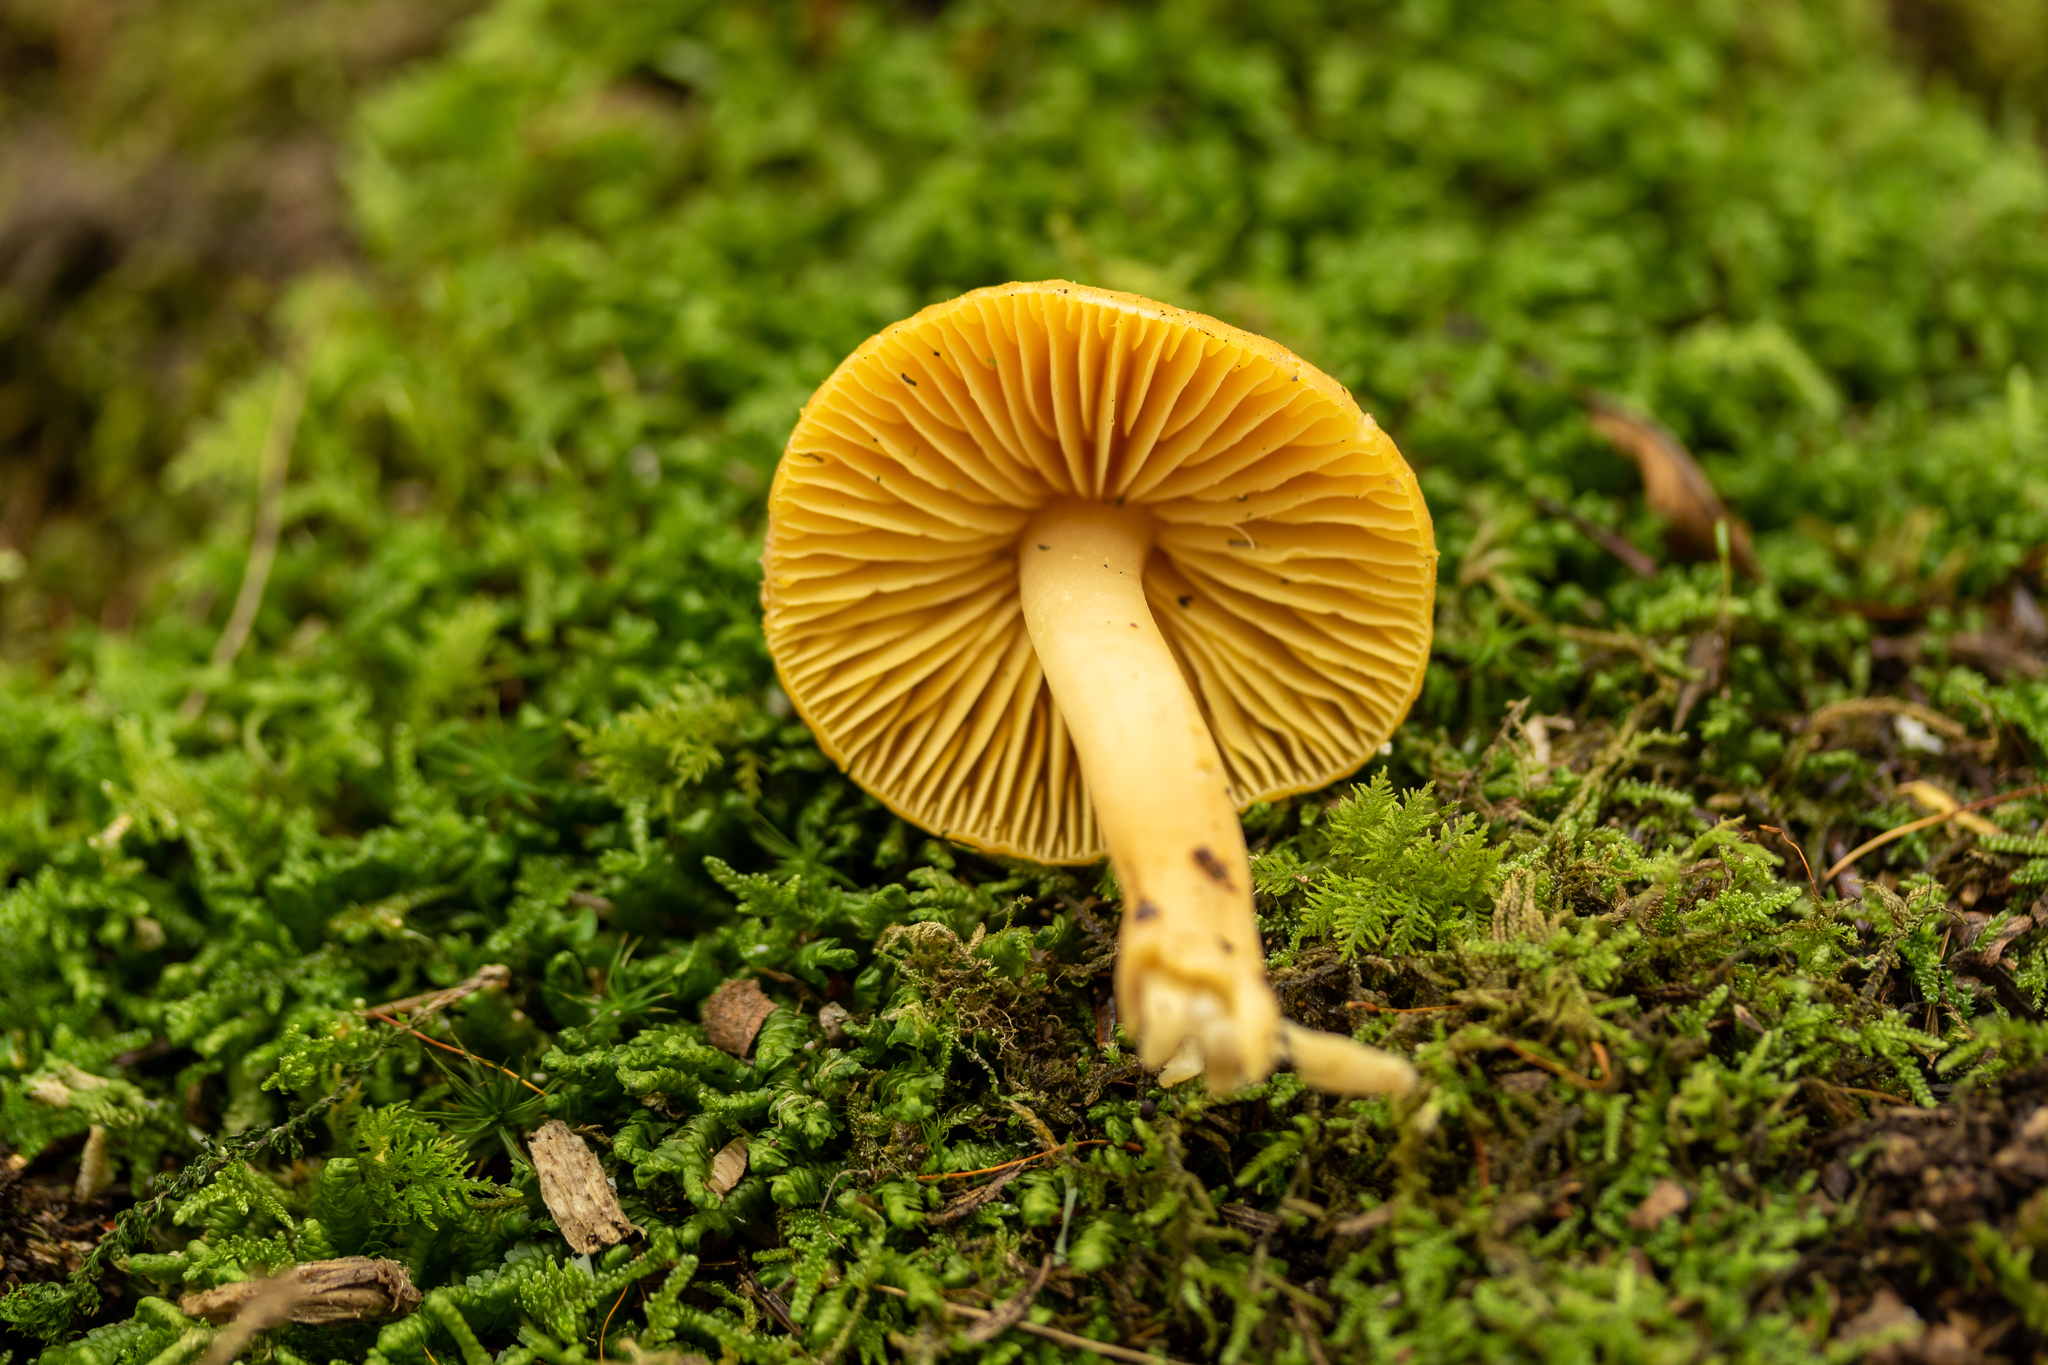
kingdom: Fungi
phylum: Basidiomycota
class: Agaricomycetes
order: Agaricales
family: Hygrophoraceae
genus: Humidicutis
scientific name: Humidicutis marginata
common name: Orange gilled waxcap
